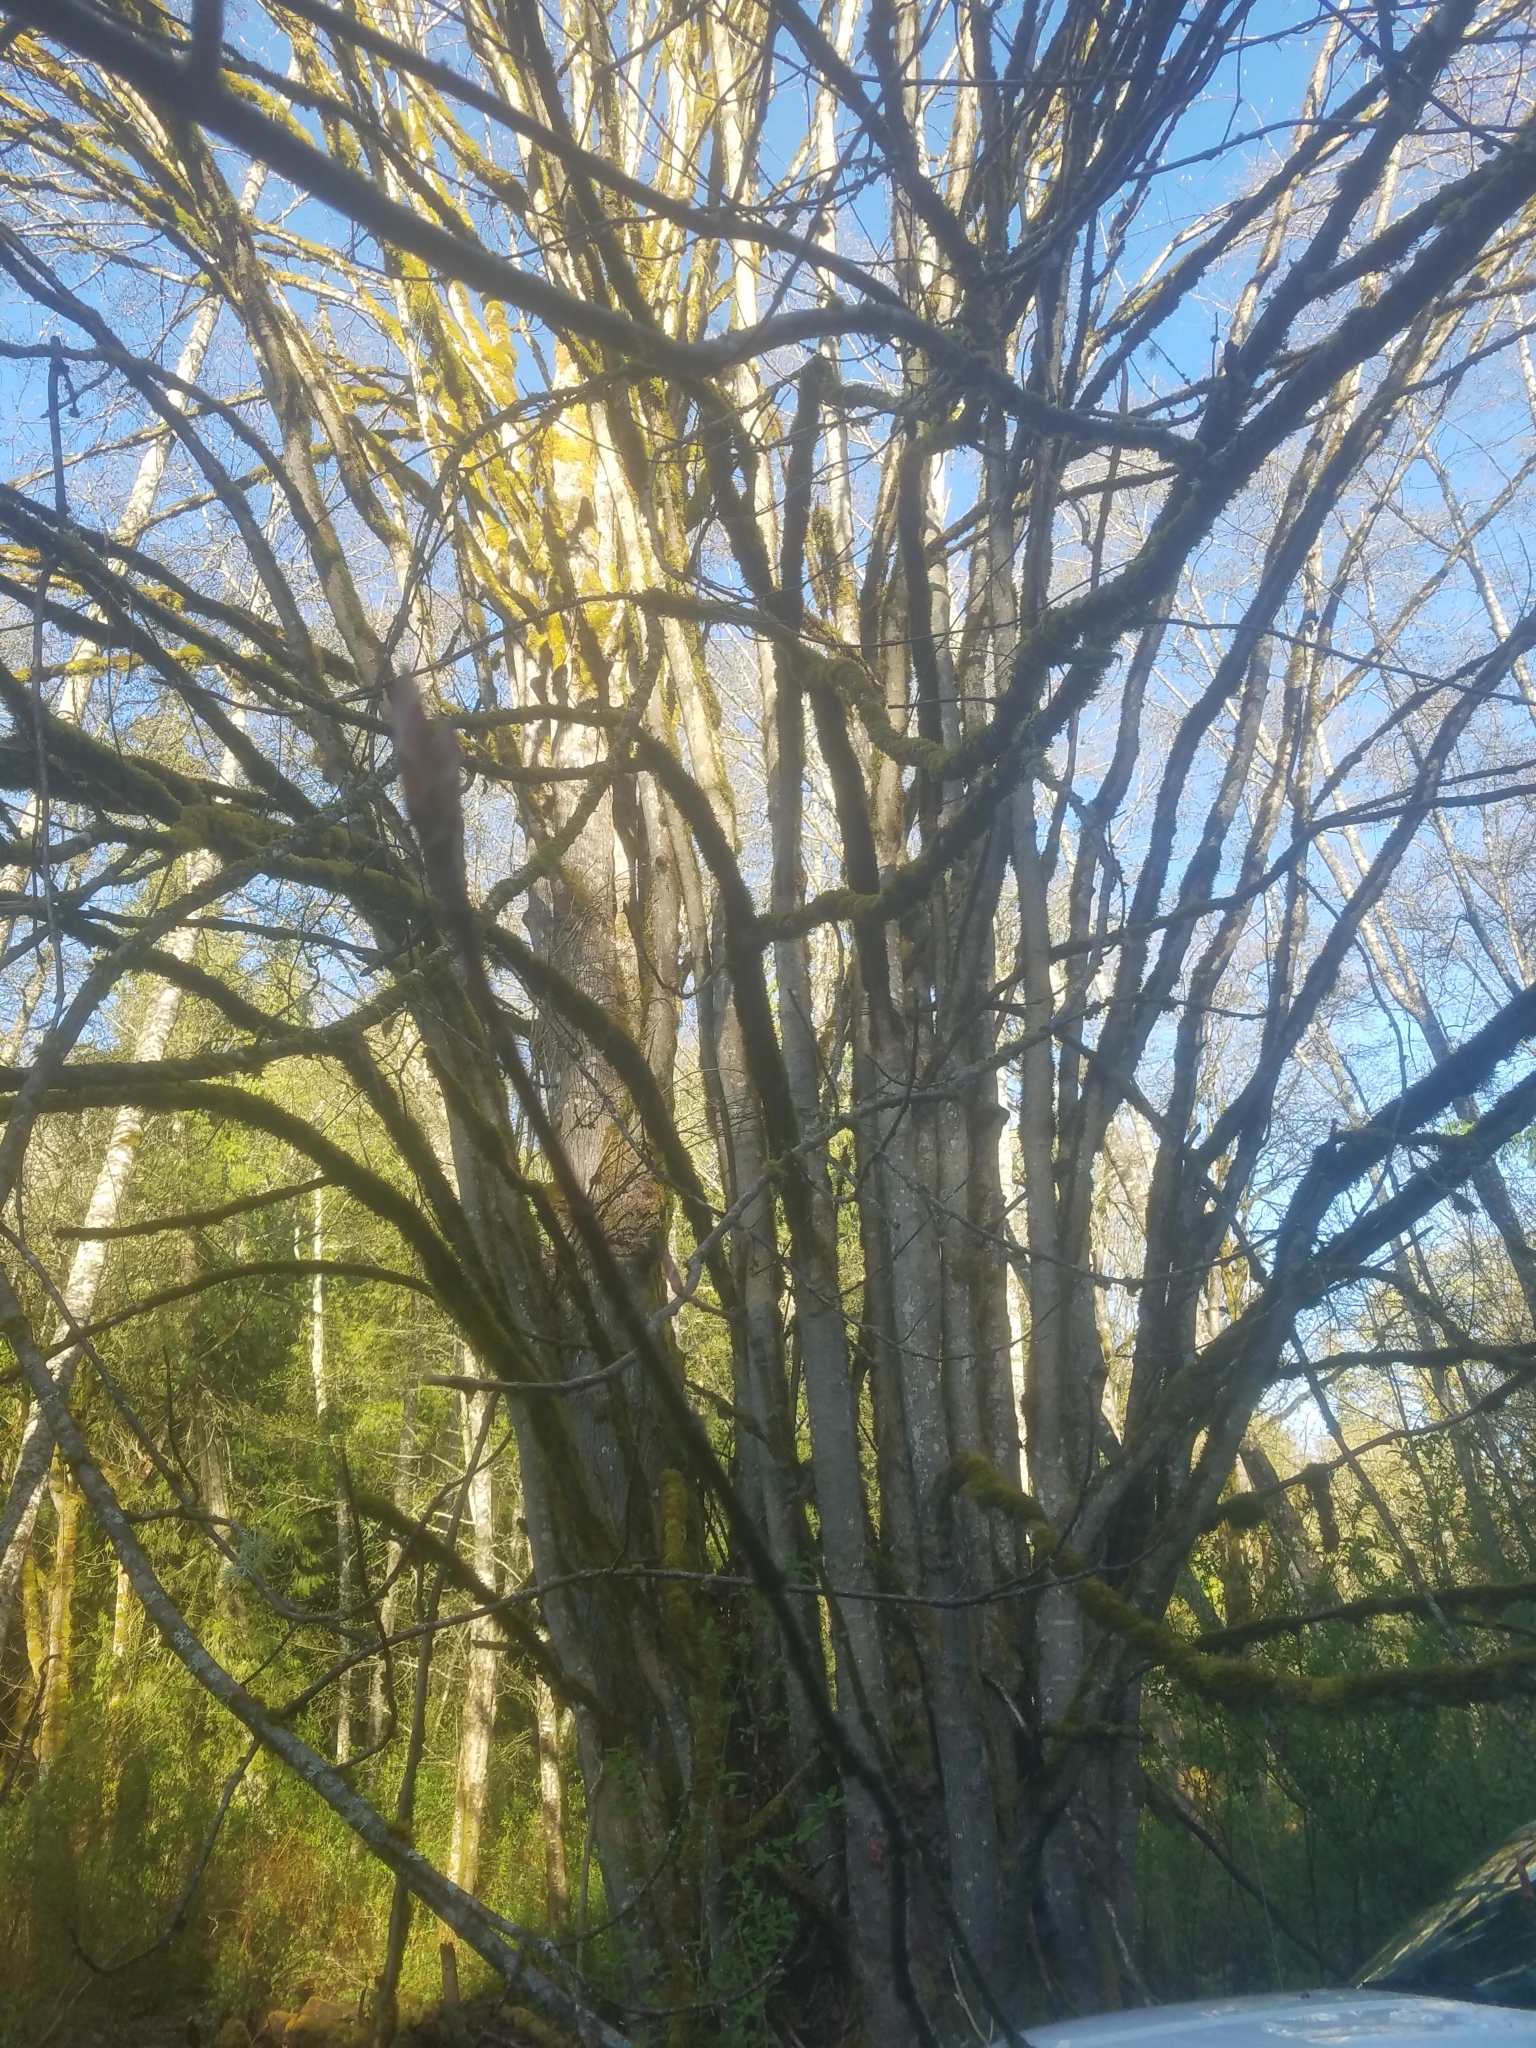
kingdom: Plantae
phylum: Tracheophyta
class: Magnoliopsida
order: Sapindales
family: Sapindaceae
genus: Acer
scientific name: Acer macrophyllum
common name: Oregon maple
